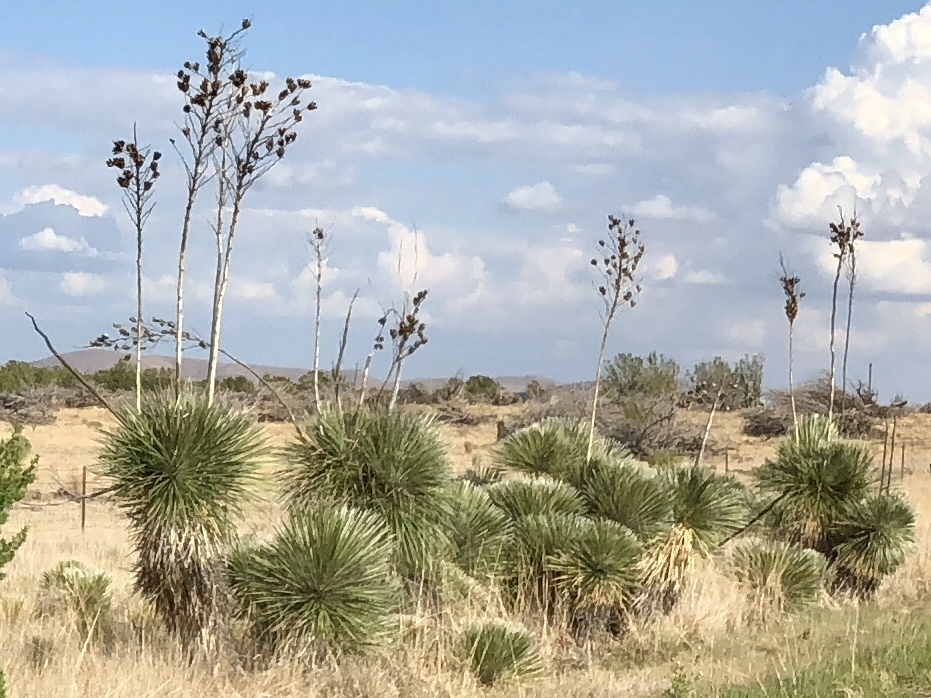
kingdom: Plantae
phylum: Tracheophyta
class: Liliopsida
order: Asparagales
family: Asparagaceae
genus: Yucca
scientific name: Yucca elata
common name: Palmella
